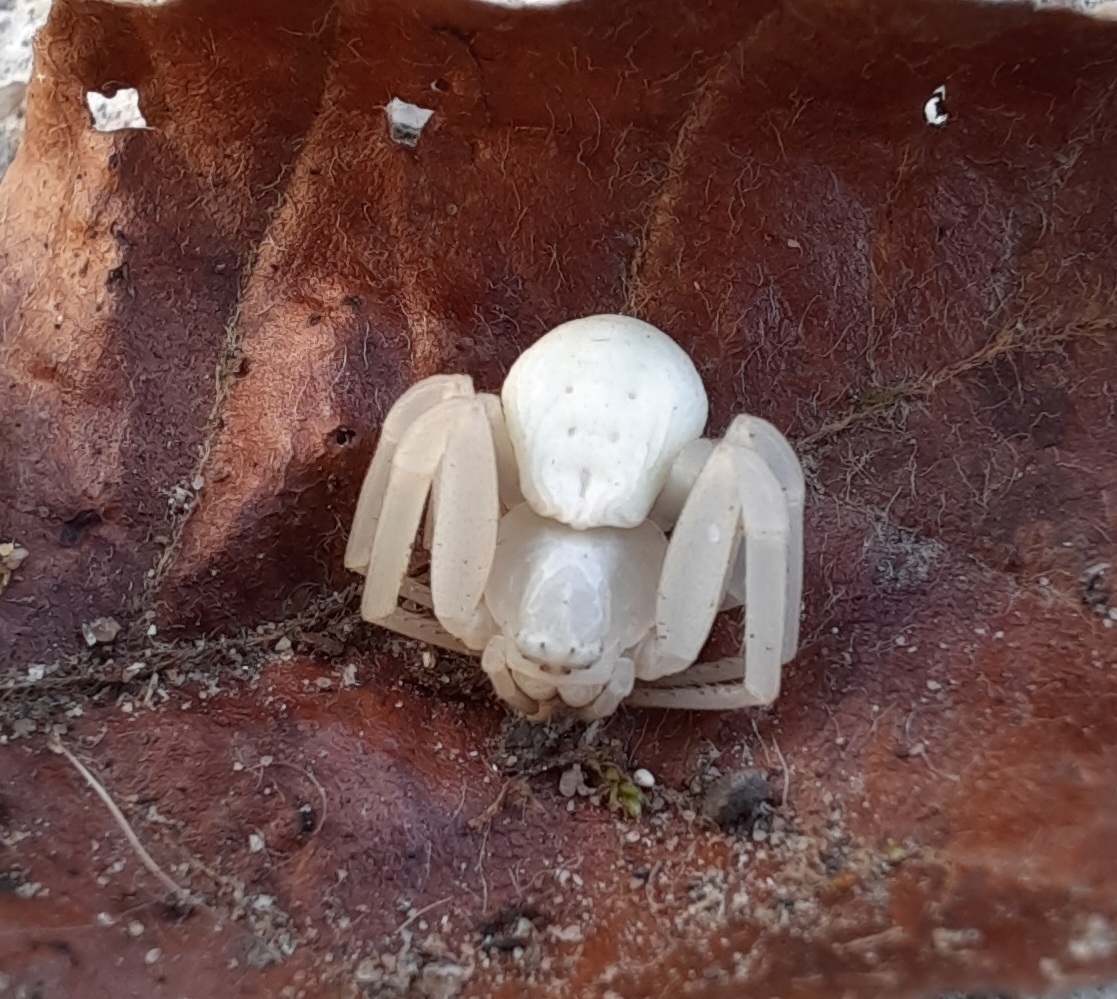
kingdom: Animalia
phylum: Arthropoda
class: Arachnida
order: Araneae
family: Thomisidae
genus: Misumena
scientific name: Misumena vatia
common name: Goldenrod crab spider
